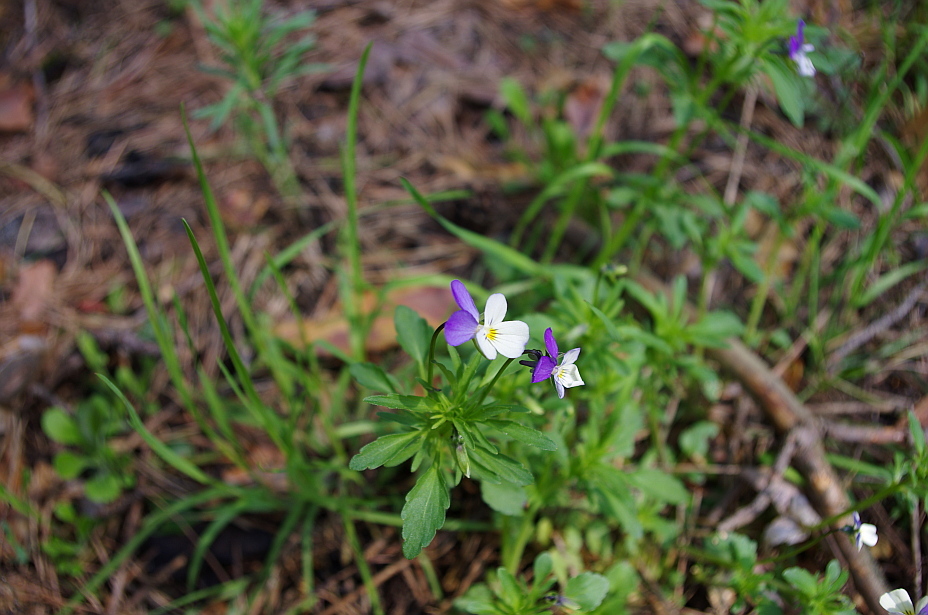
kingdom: Plantae
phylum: Tracheophyta
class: Magnoliopsida
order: Malpighiales
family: Violaceae
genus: Viola
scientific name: Viola tricolor
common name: Pansy
